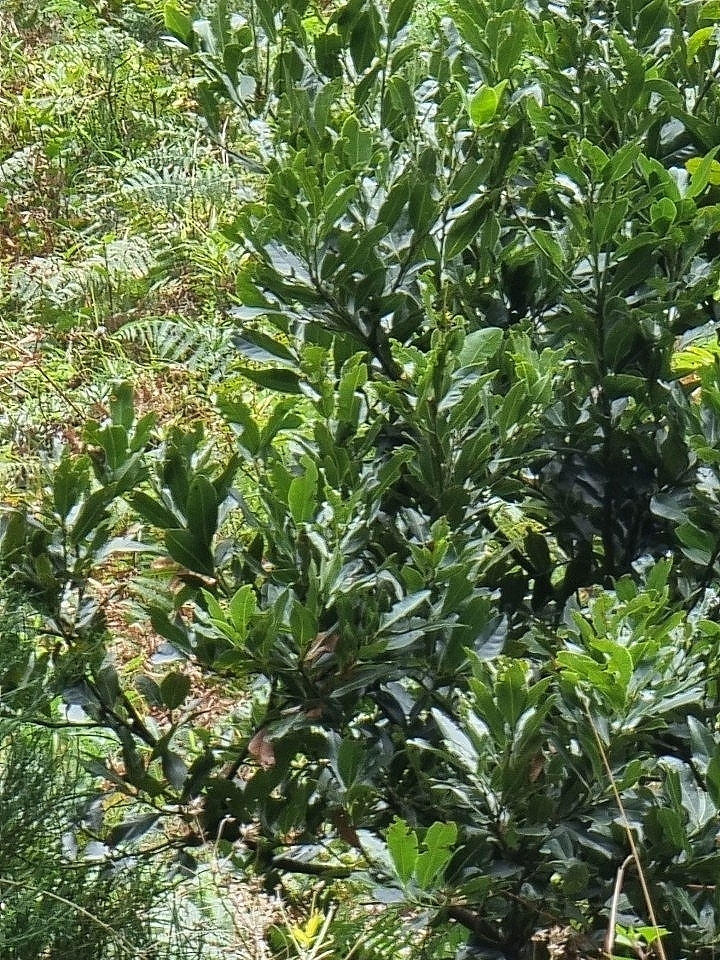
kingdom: Plantae
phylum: Tracheophyta
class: Magnoliopsida
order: Laurales
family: Lauraceae
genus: Laurus
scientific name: Laurus novocanariensis
